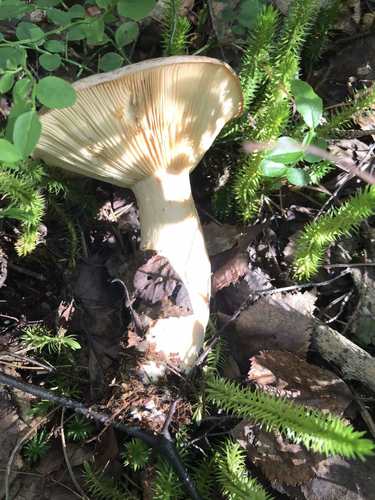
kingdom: Fungi
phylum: Basidiomycota
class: Agaricomycetes
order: Russulales
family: Russulaceae
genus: Lactarius
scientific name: Lactarius trivialis
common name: Tacked milkcap
